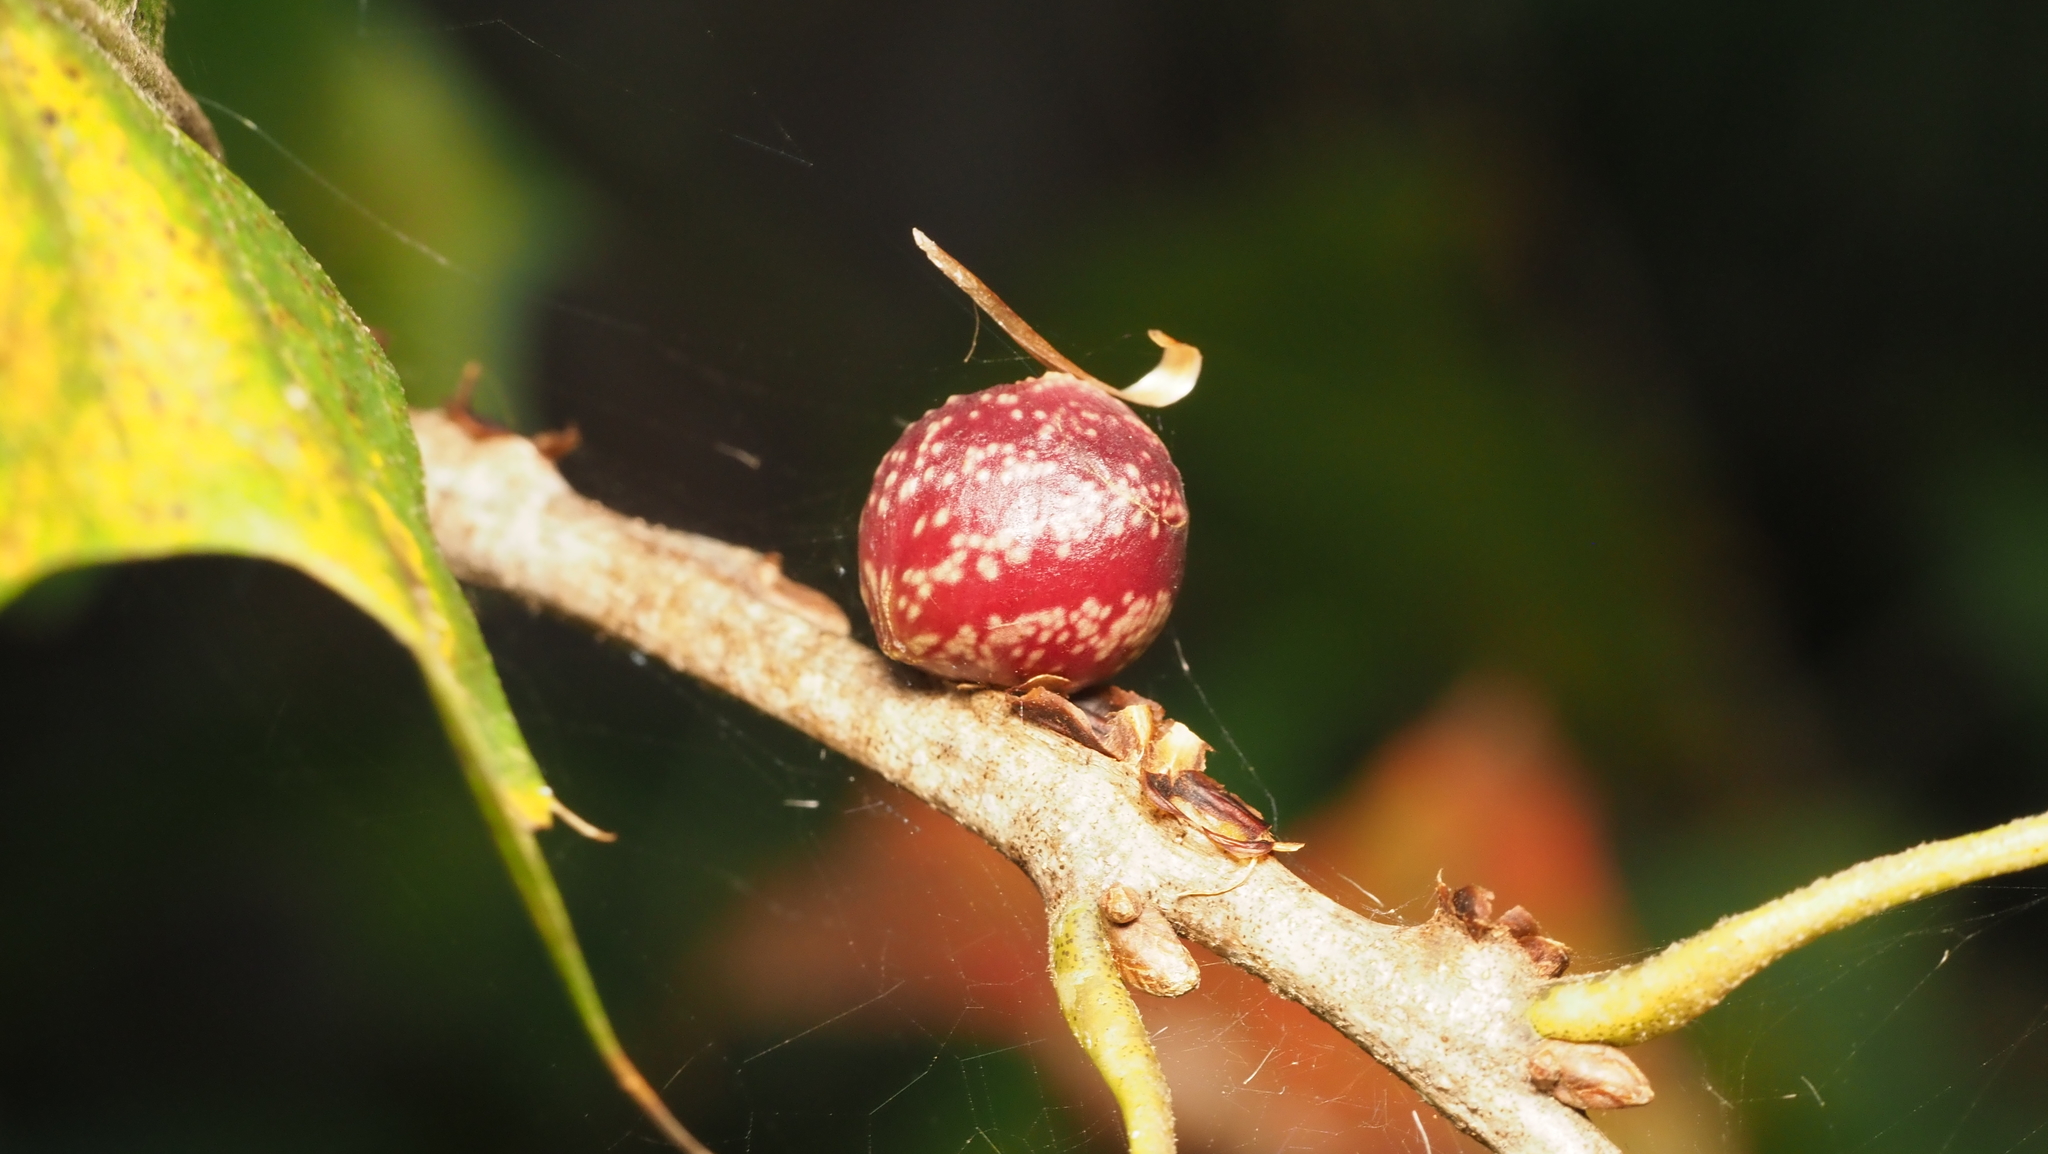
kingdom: Animalia
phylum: Arthropoda
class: Insecta
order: Hymenoptera
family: Cynipidae
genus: Kokkocynips
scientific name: Kokkocynips imbricariae
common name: Banded bullet gall wasp
